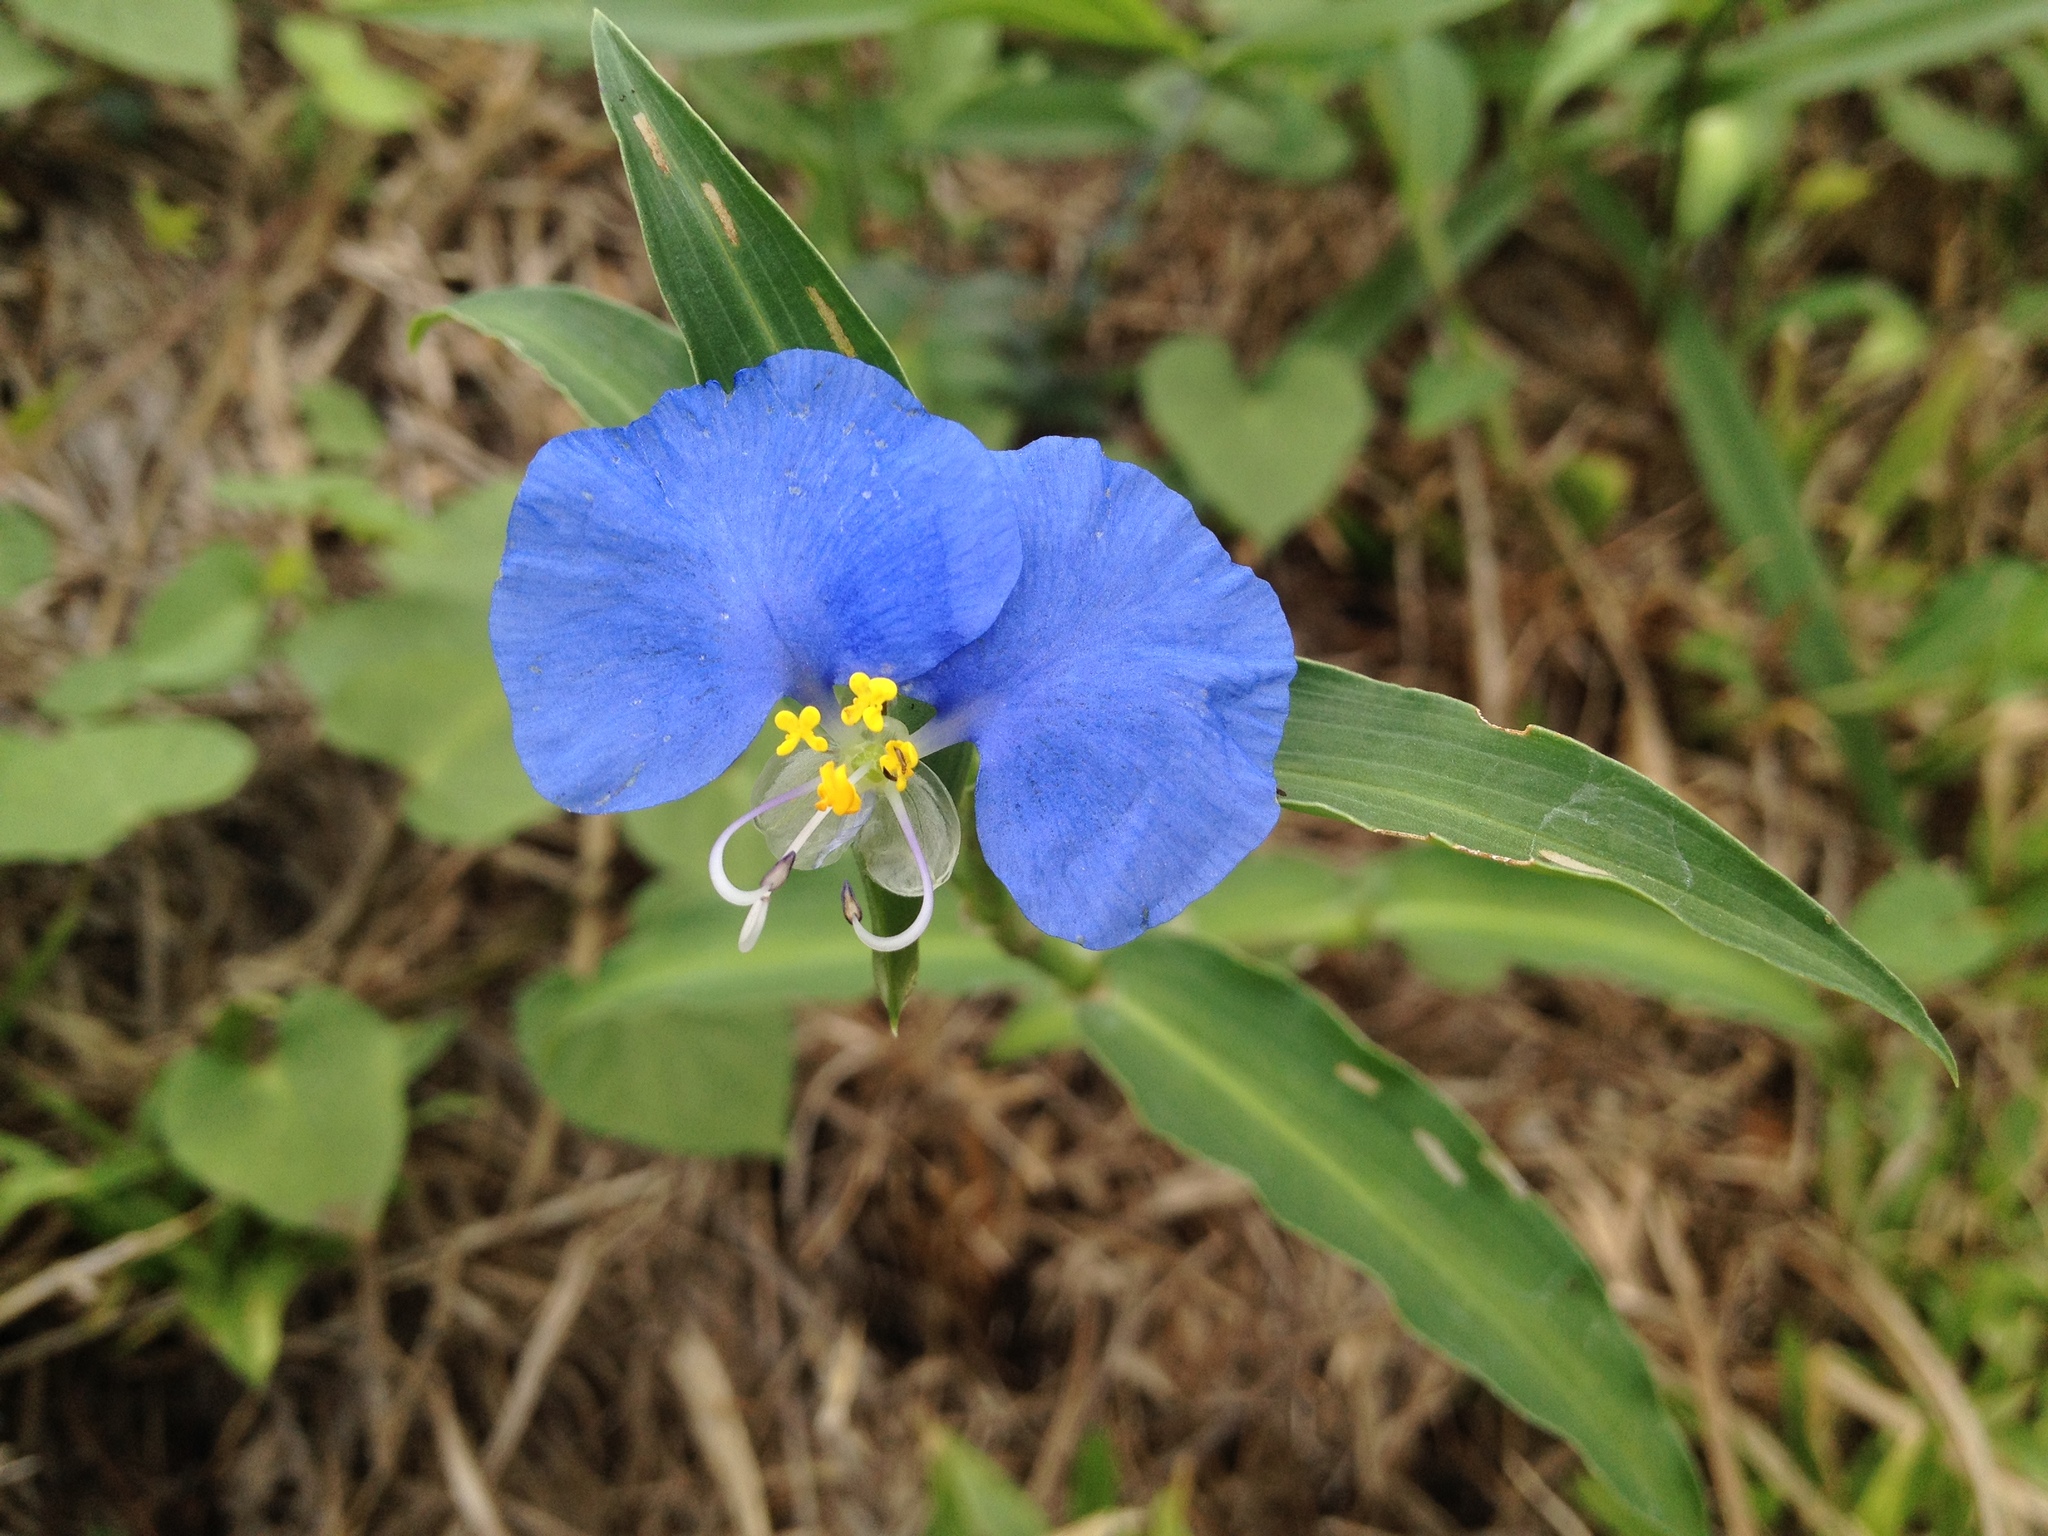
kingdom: Plantae
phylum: Tracheophyta
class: Liliopsida
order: Commelinales
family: Commelinaceae
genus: Commelina
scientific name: Commelina erecta
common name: Blousel blommetjie
